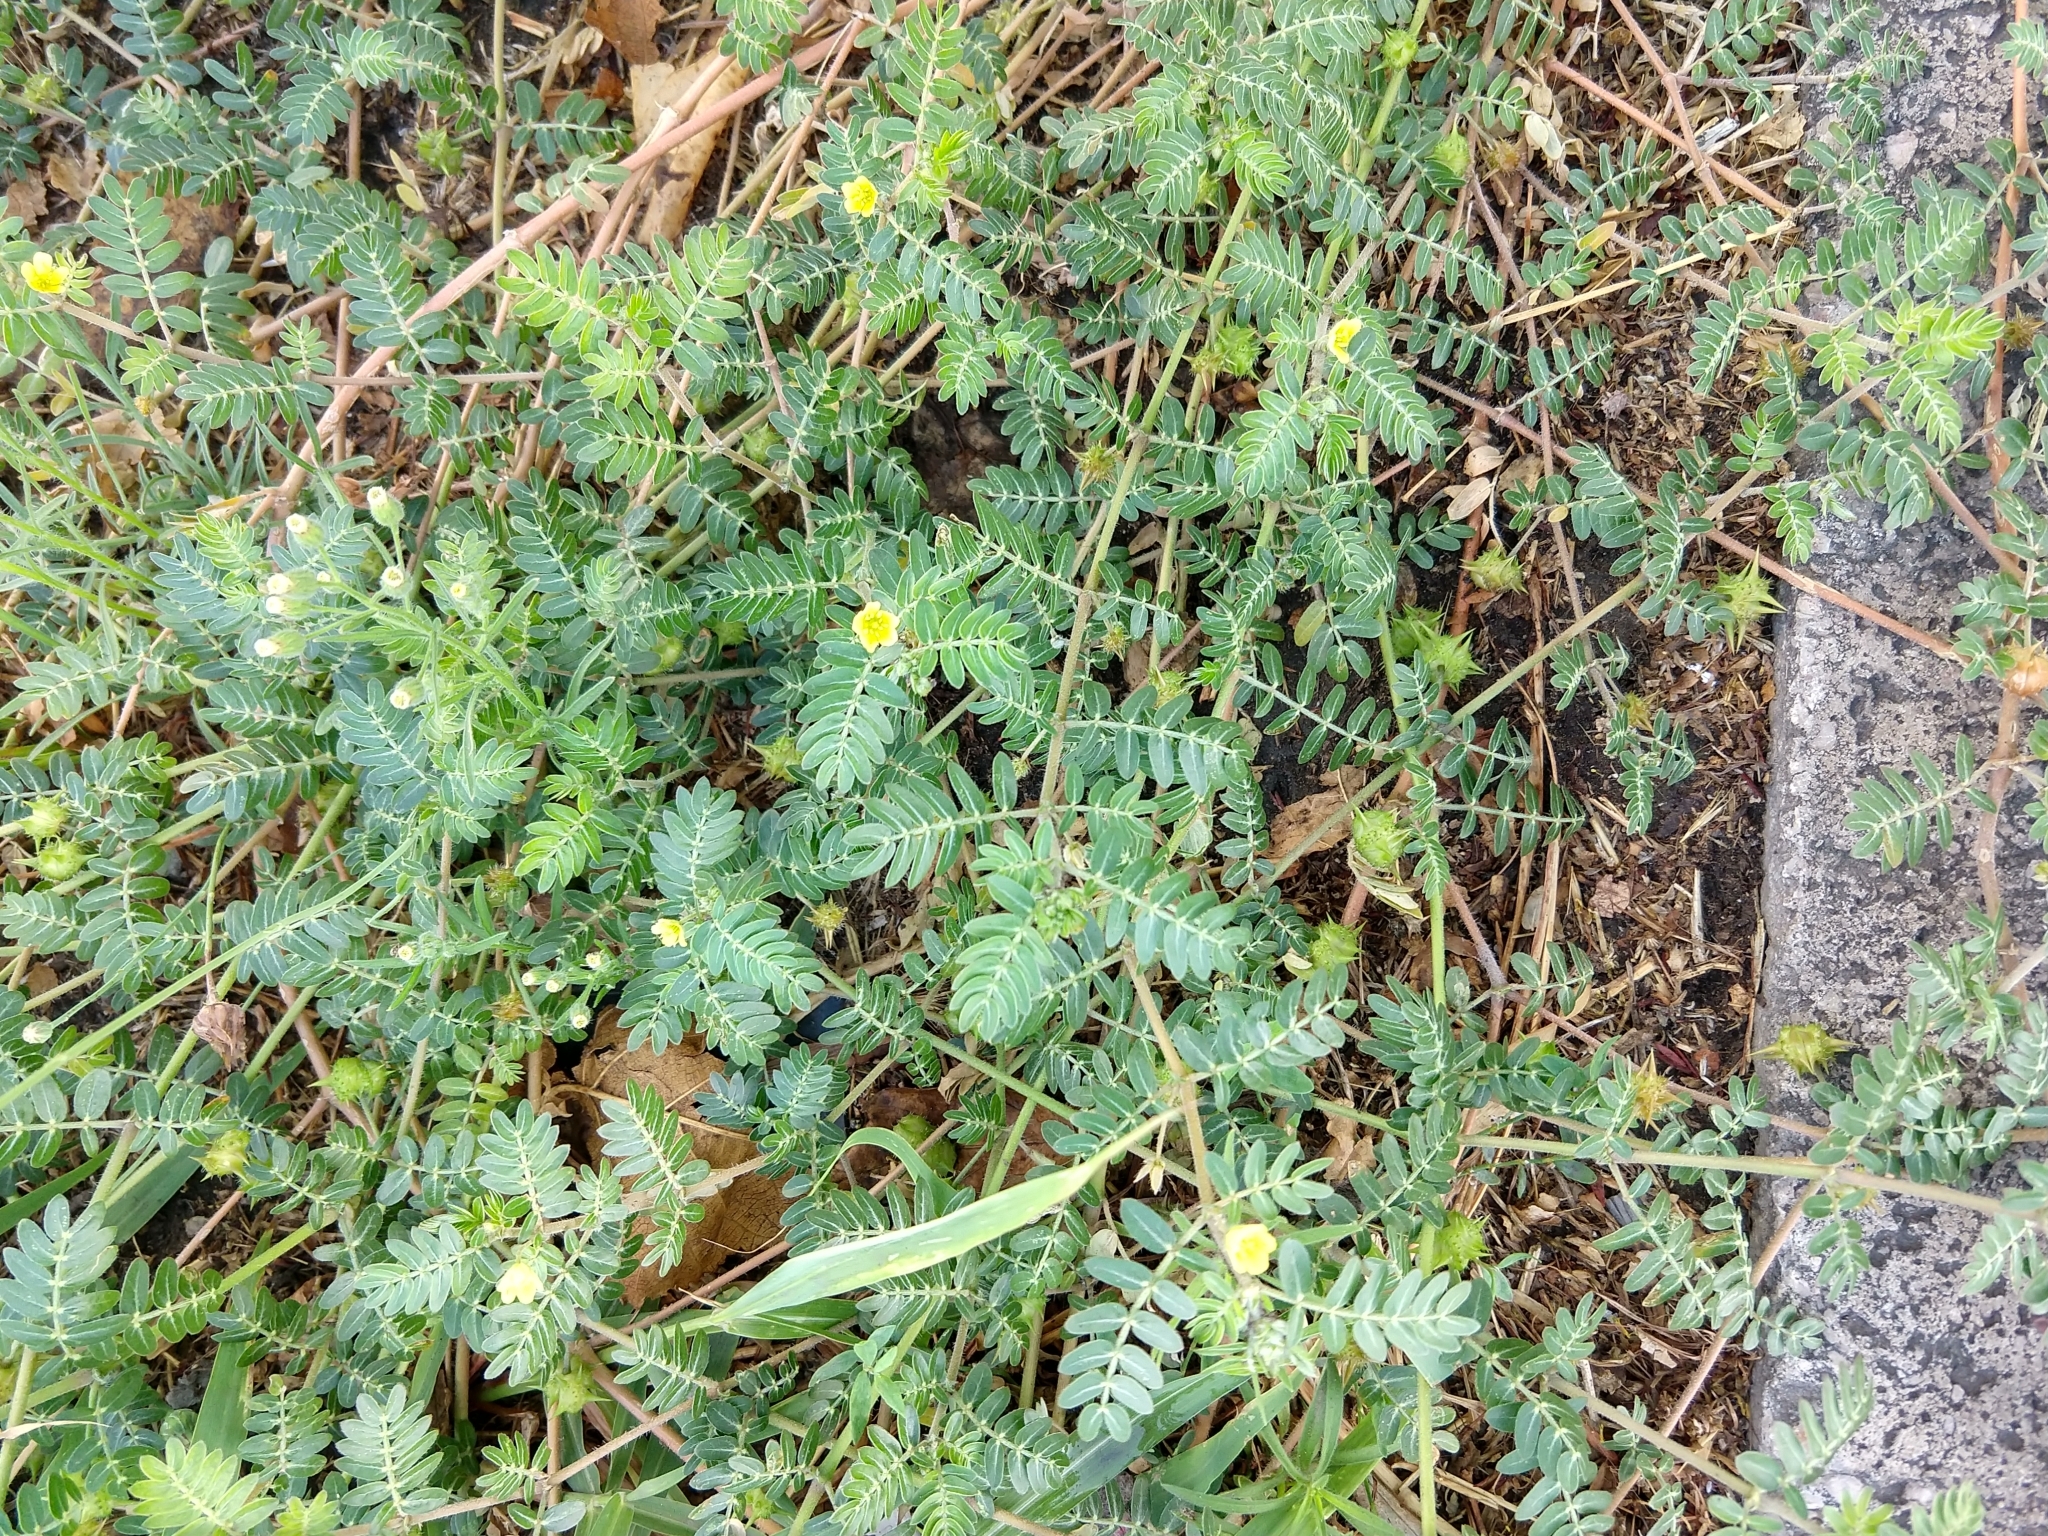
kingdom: Plantae
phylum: Tracheophyta
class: Magnoliopsida
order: Zygophyllales
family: Zygophyllaceae
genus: Tribulus
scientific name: Tribulus terrestris
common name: Puncturevine
